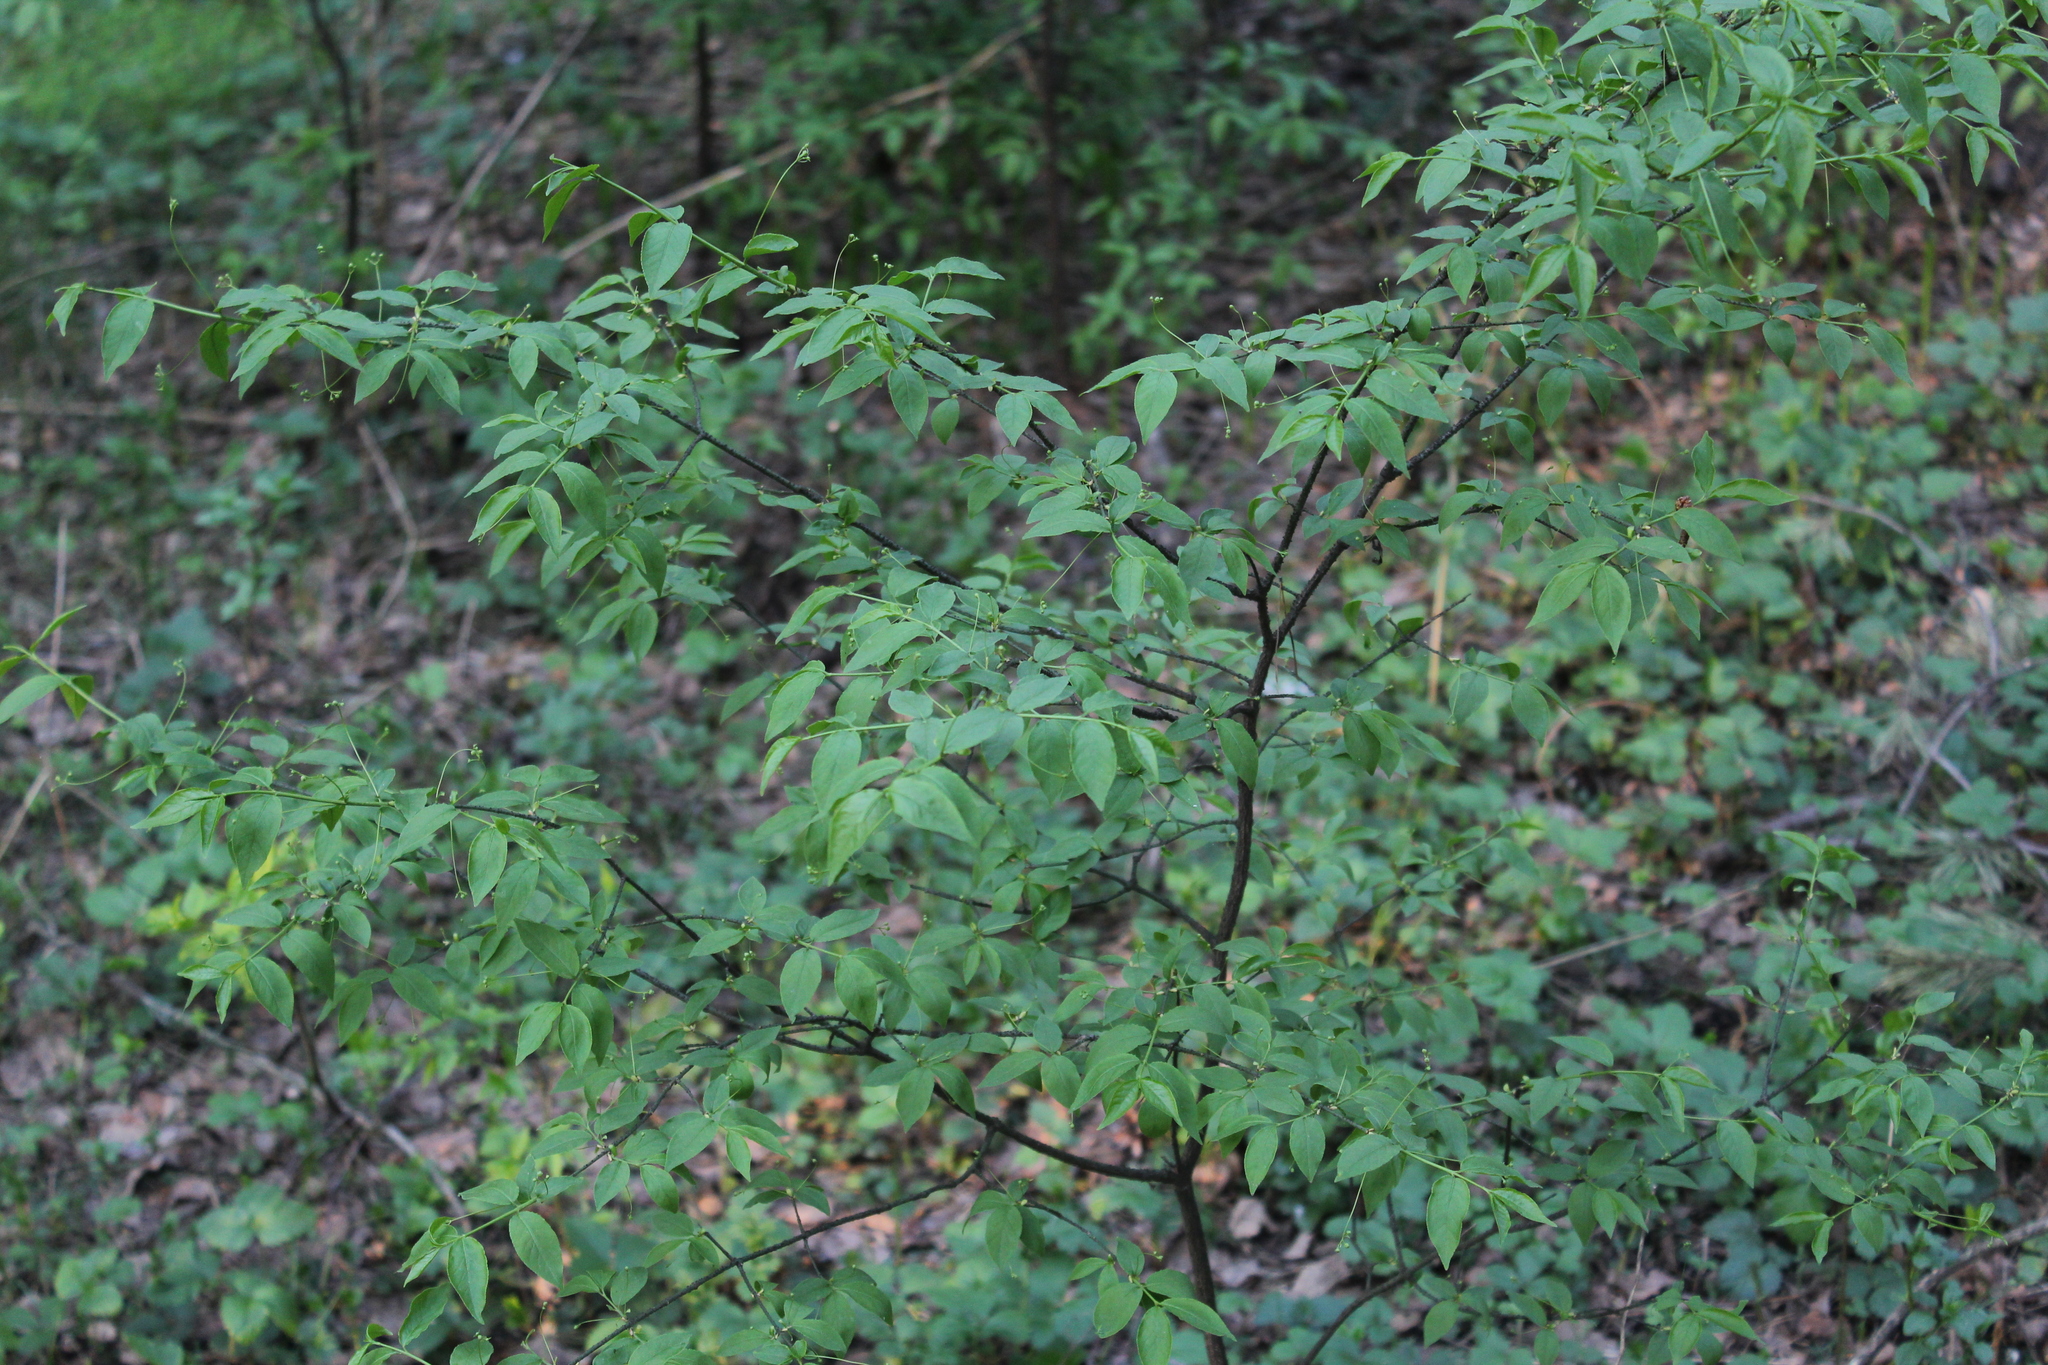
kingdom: Plantae
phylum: Tracheophyta
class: Magnoliopsida
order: Celastrales
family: Celastraceae
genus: Euonymus
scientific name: Euonymus verrucosus
